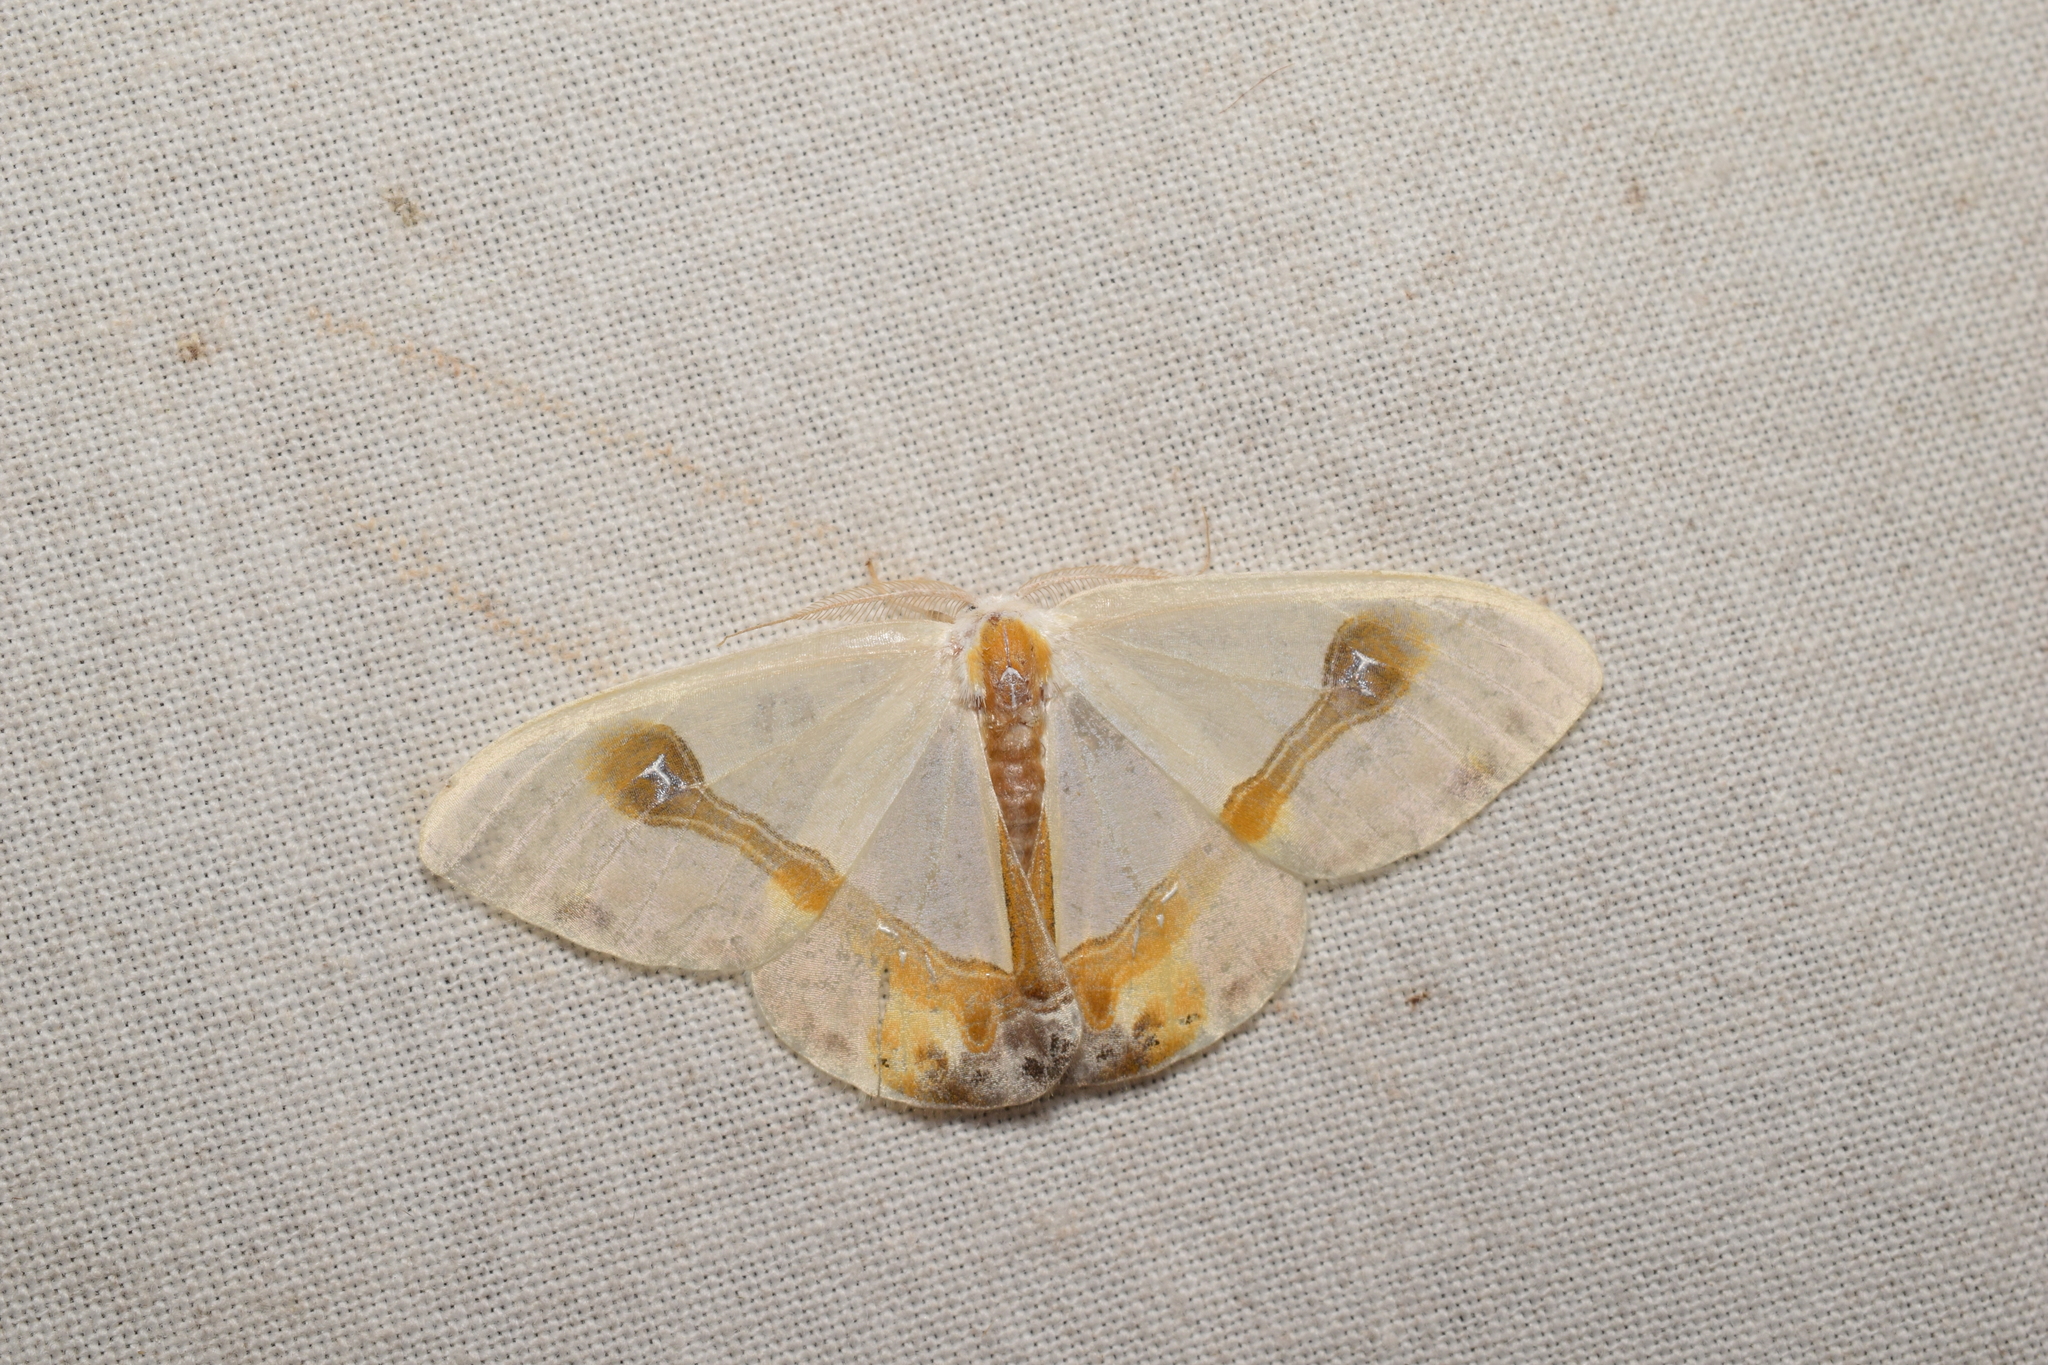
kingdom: Animalia
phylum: Arthropoda
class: Insecta
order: Lepidoptera
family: Drepanidae
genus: Macrocilix
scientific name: Macrocilix mysticata
